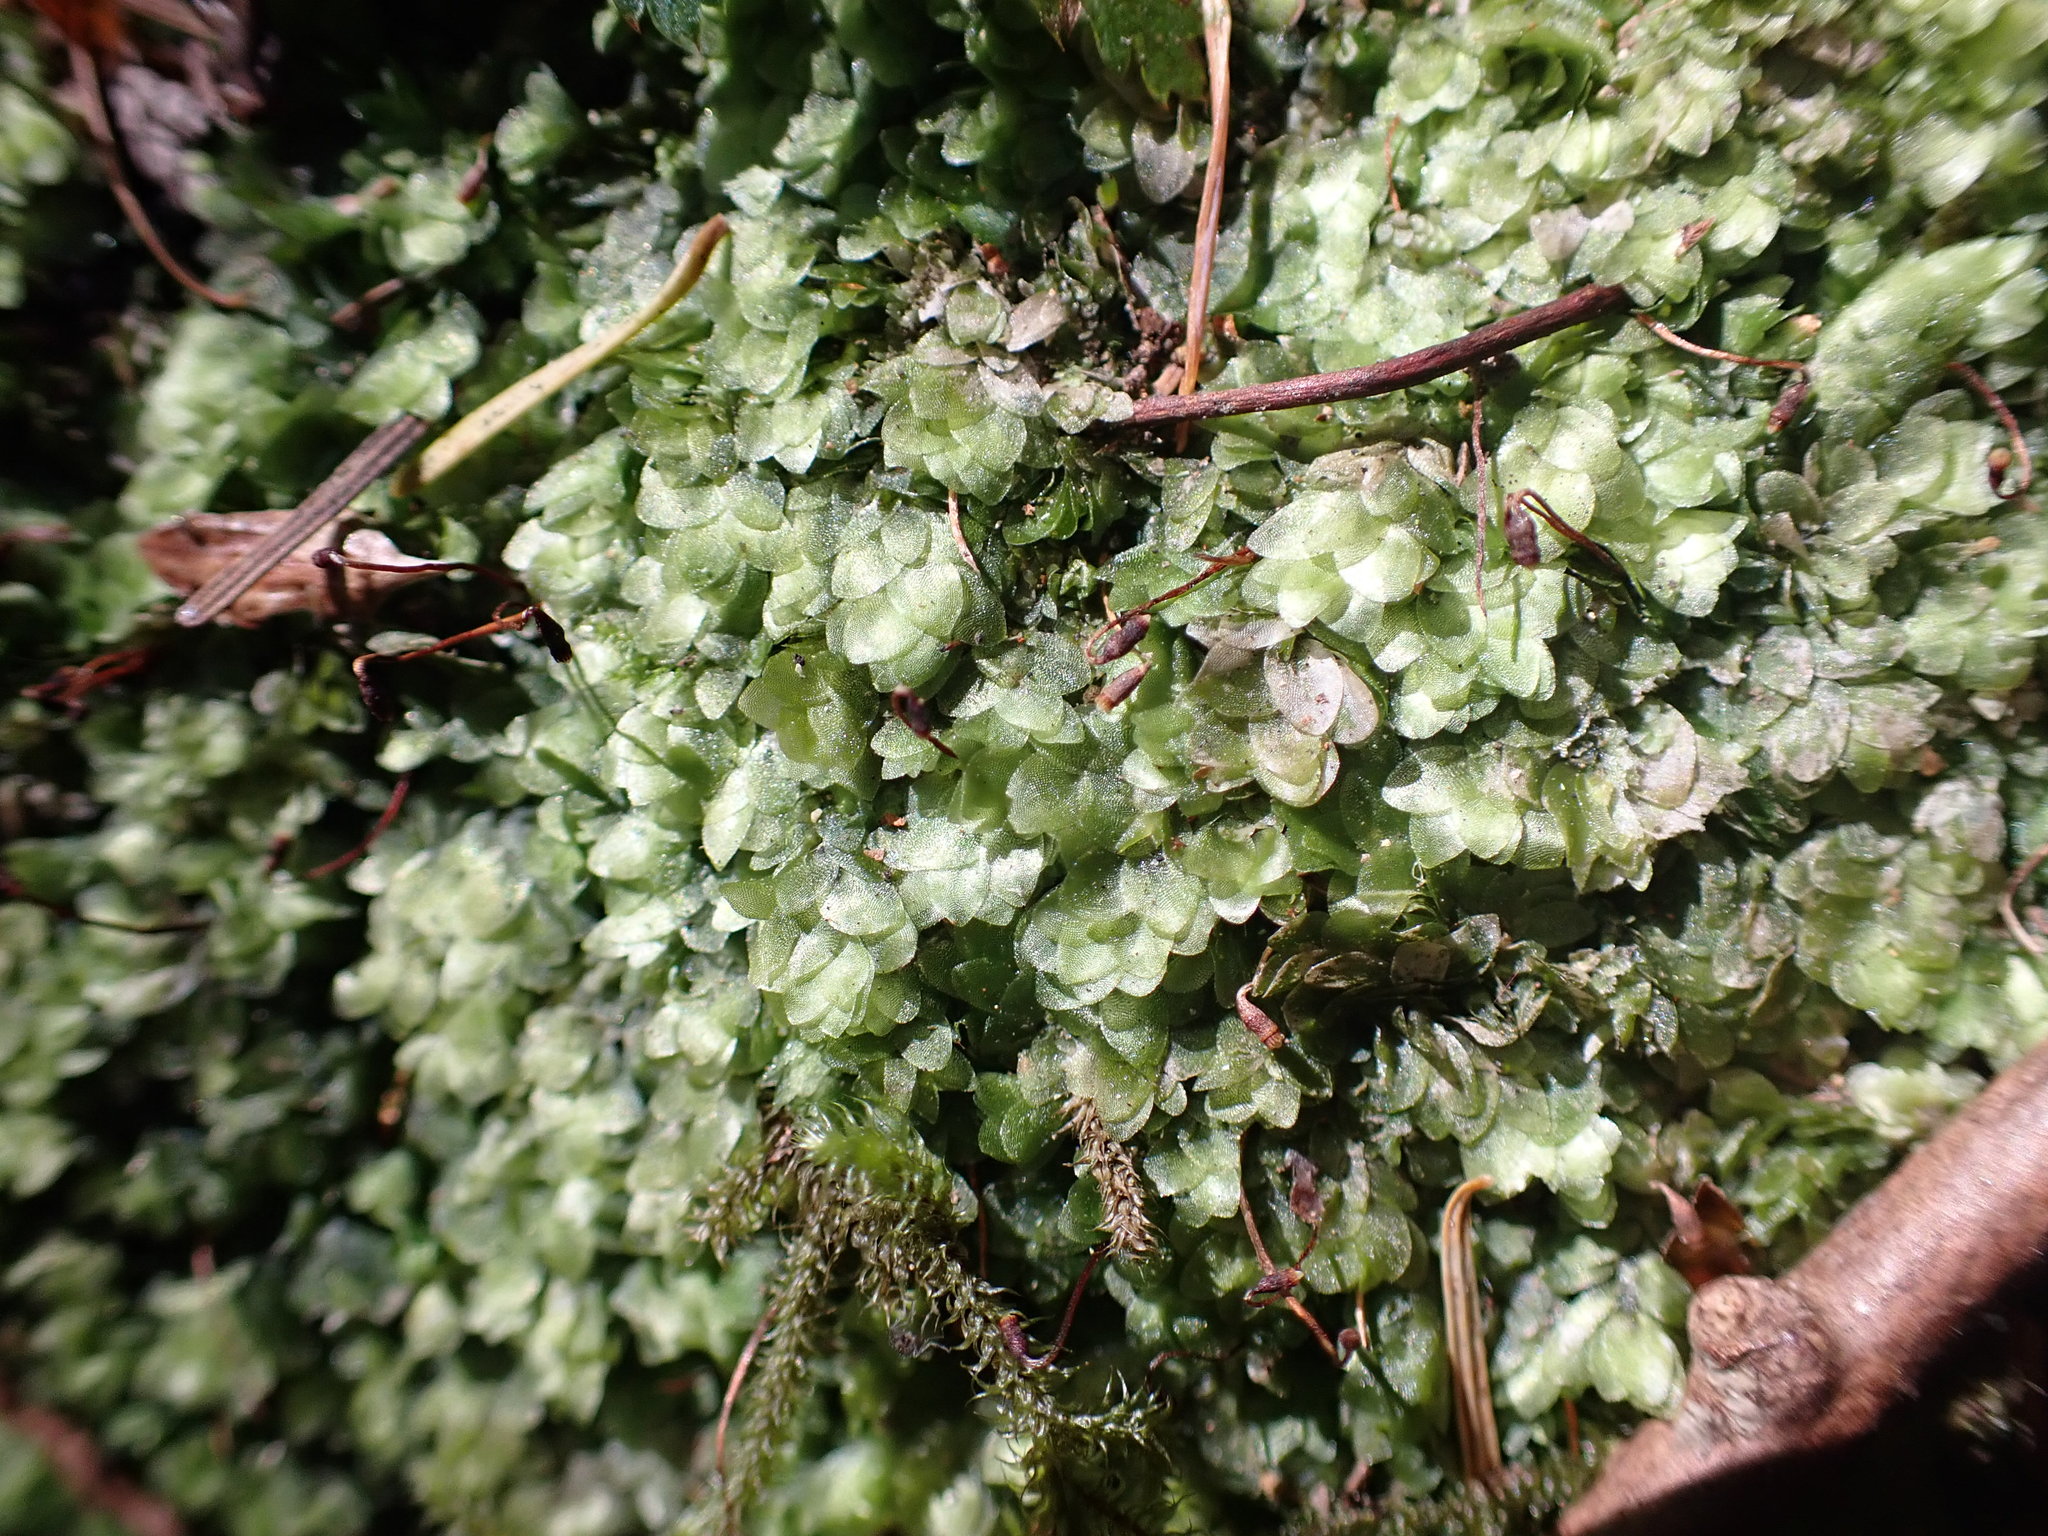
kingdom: Plantae
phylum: Bryophyta
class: Bryopsida
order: Hookeriales
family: Hookeriaceae
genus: Hookeria
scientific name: Hookeria lucens
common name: Shining hookeria
